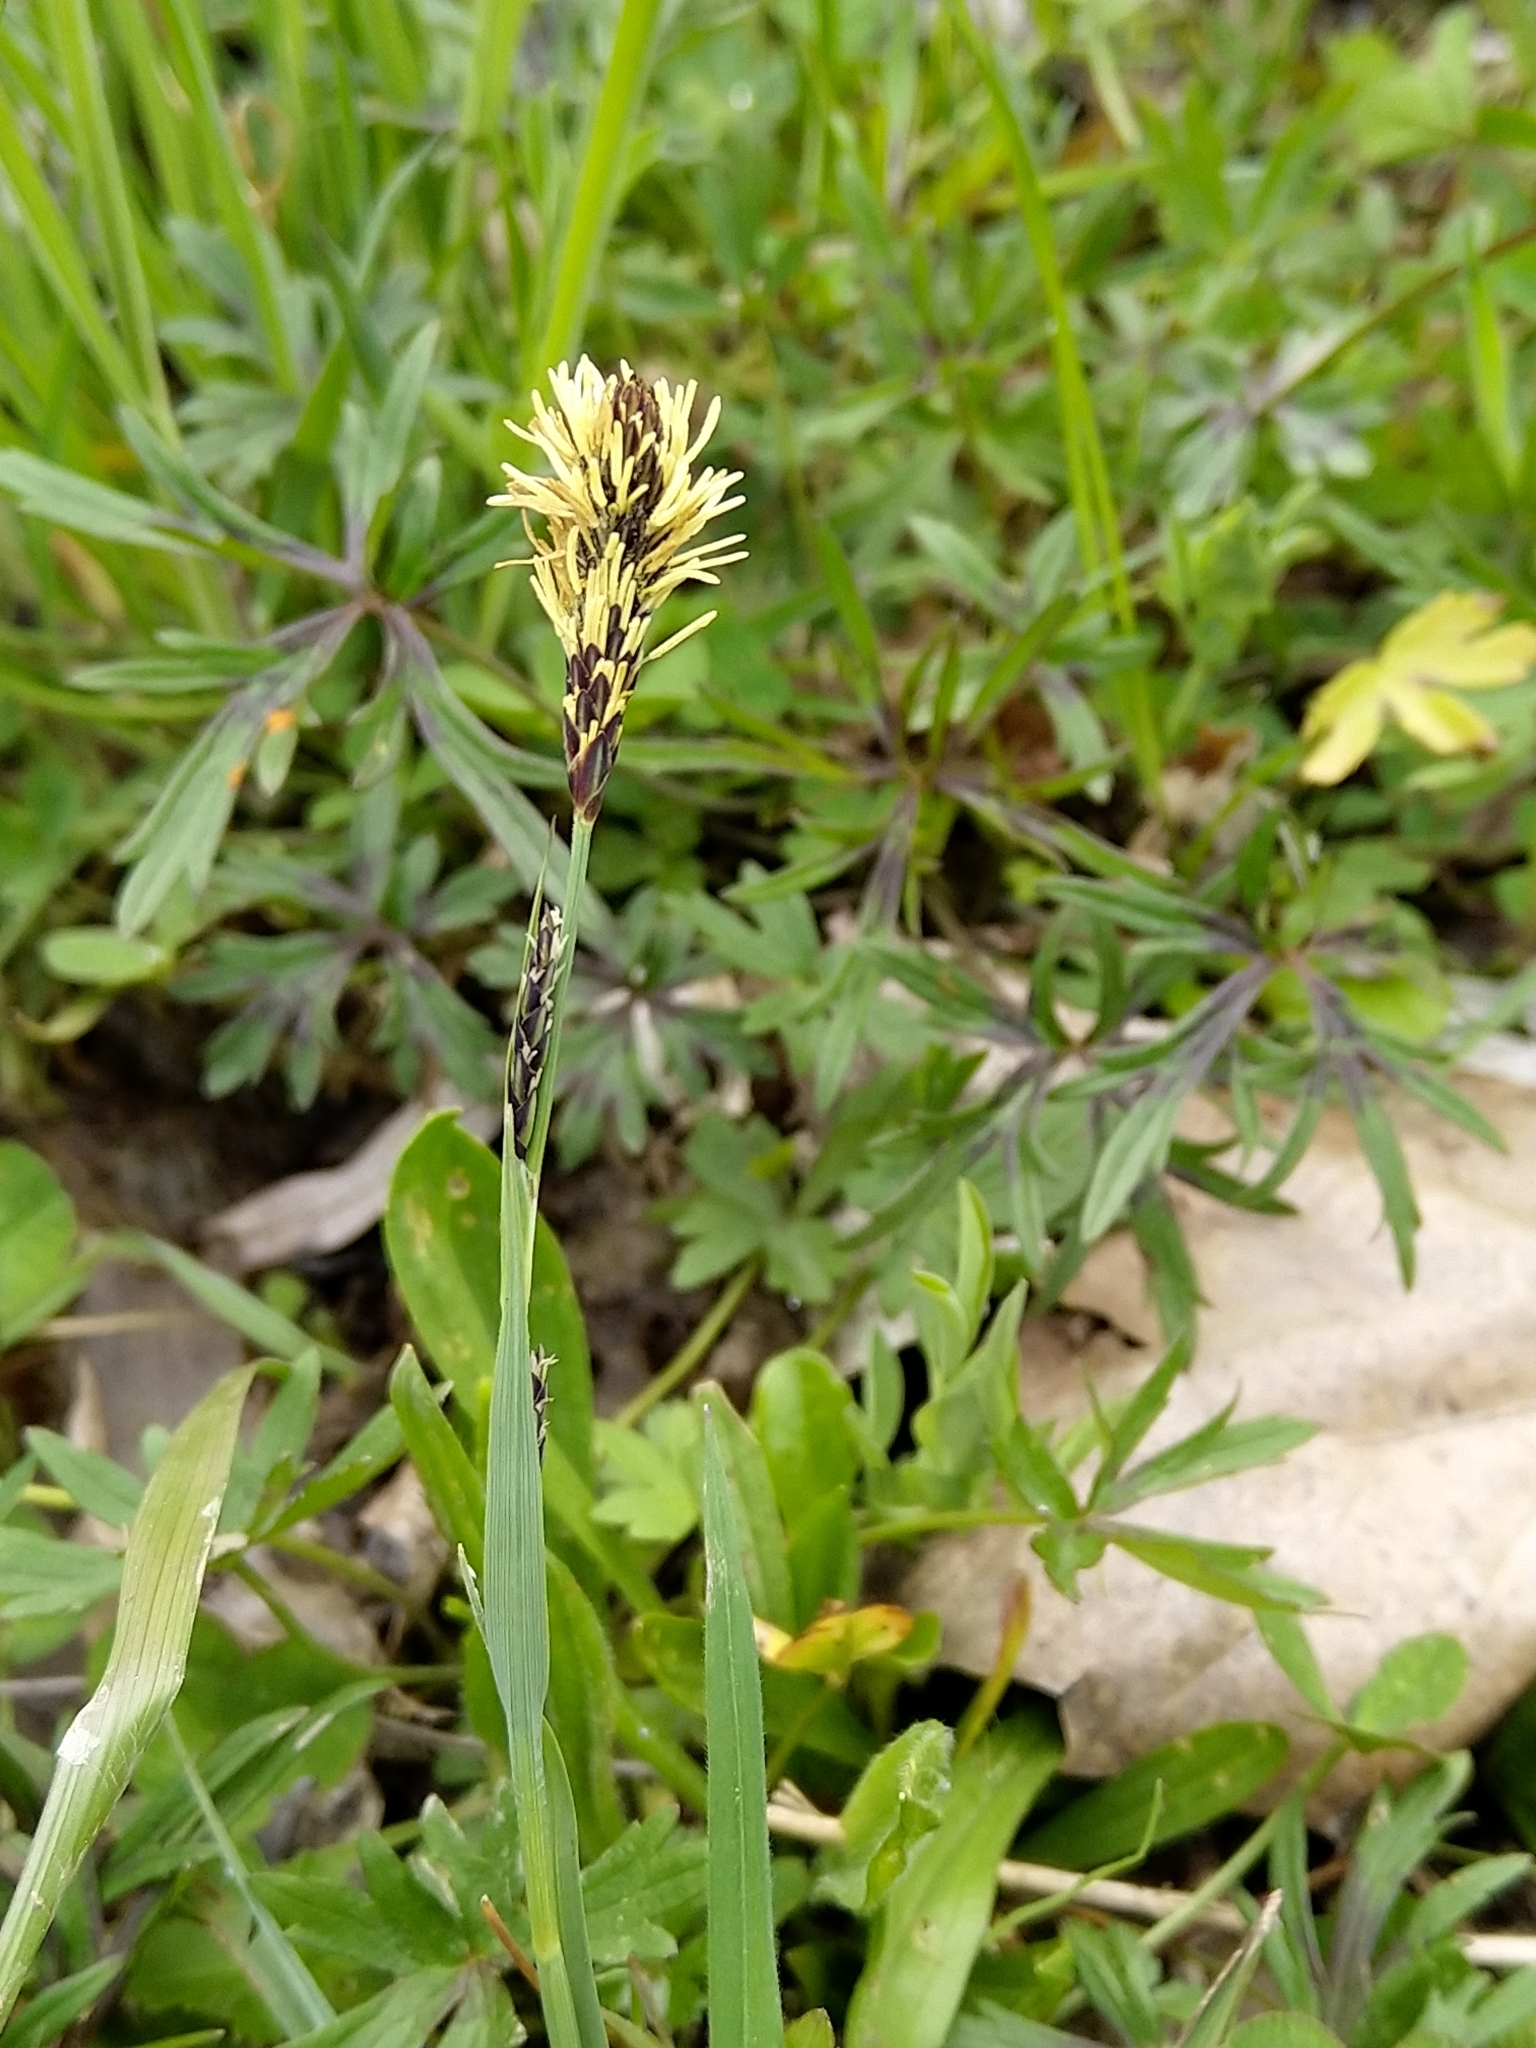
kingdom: Plantae
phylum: Tracheophyta
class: Liliopsida
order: Poales
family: Cyperaceae
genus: Carex
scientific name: Carex flacca
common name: Glaucous sedge
